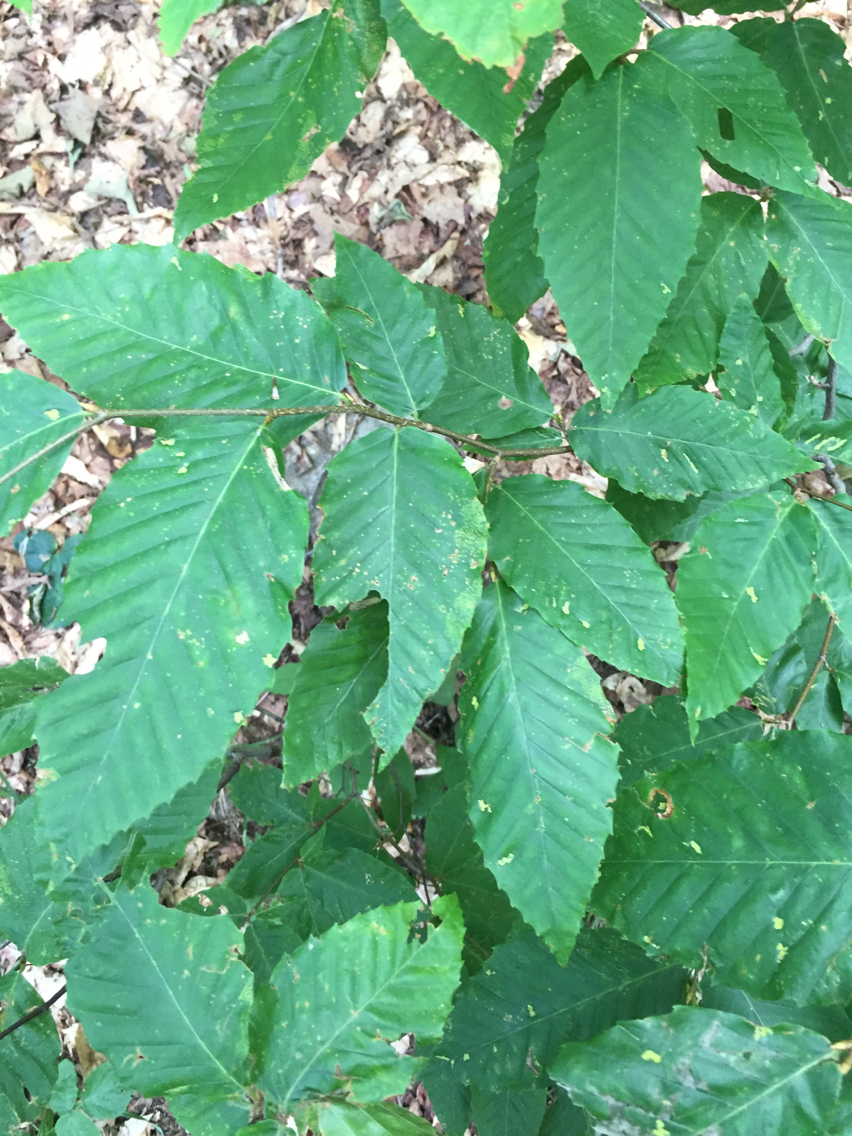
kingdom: Plantae
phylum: Tracheophyta
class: Magnoliopsida
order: Fagales
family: Fagaceae
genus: Fagus
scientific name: Fagus grandifolia
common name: American beech
